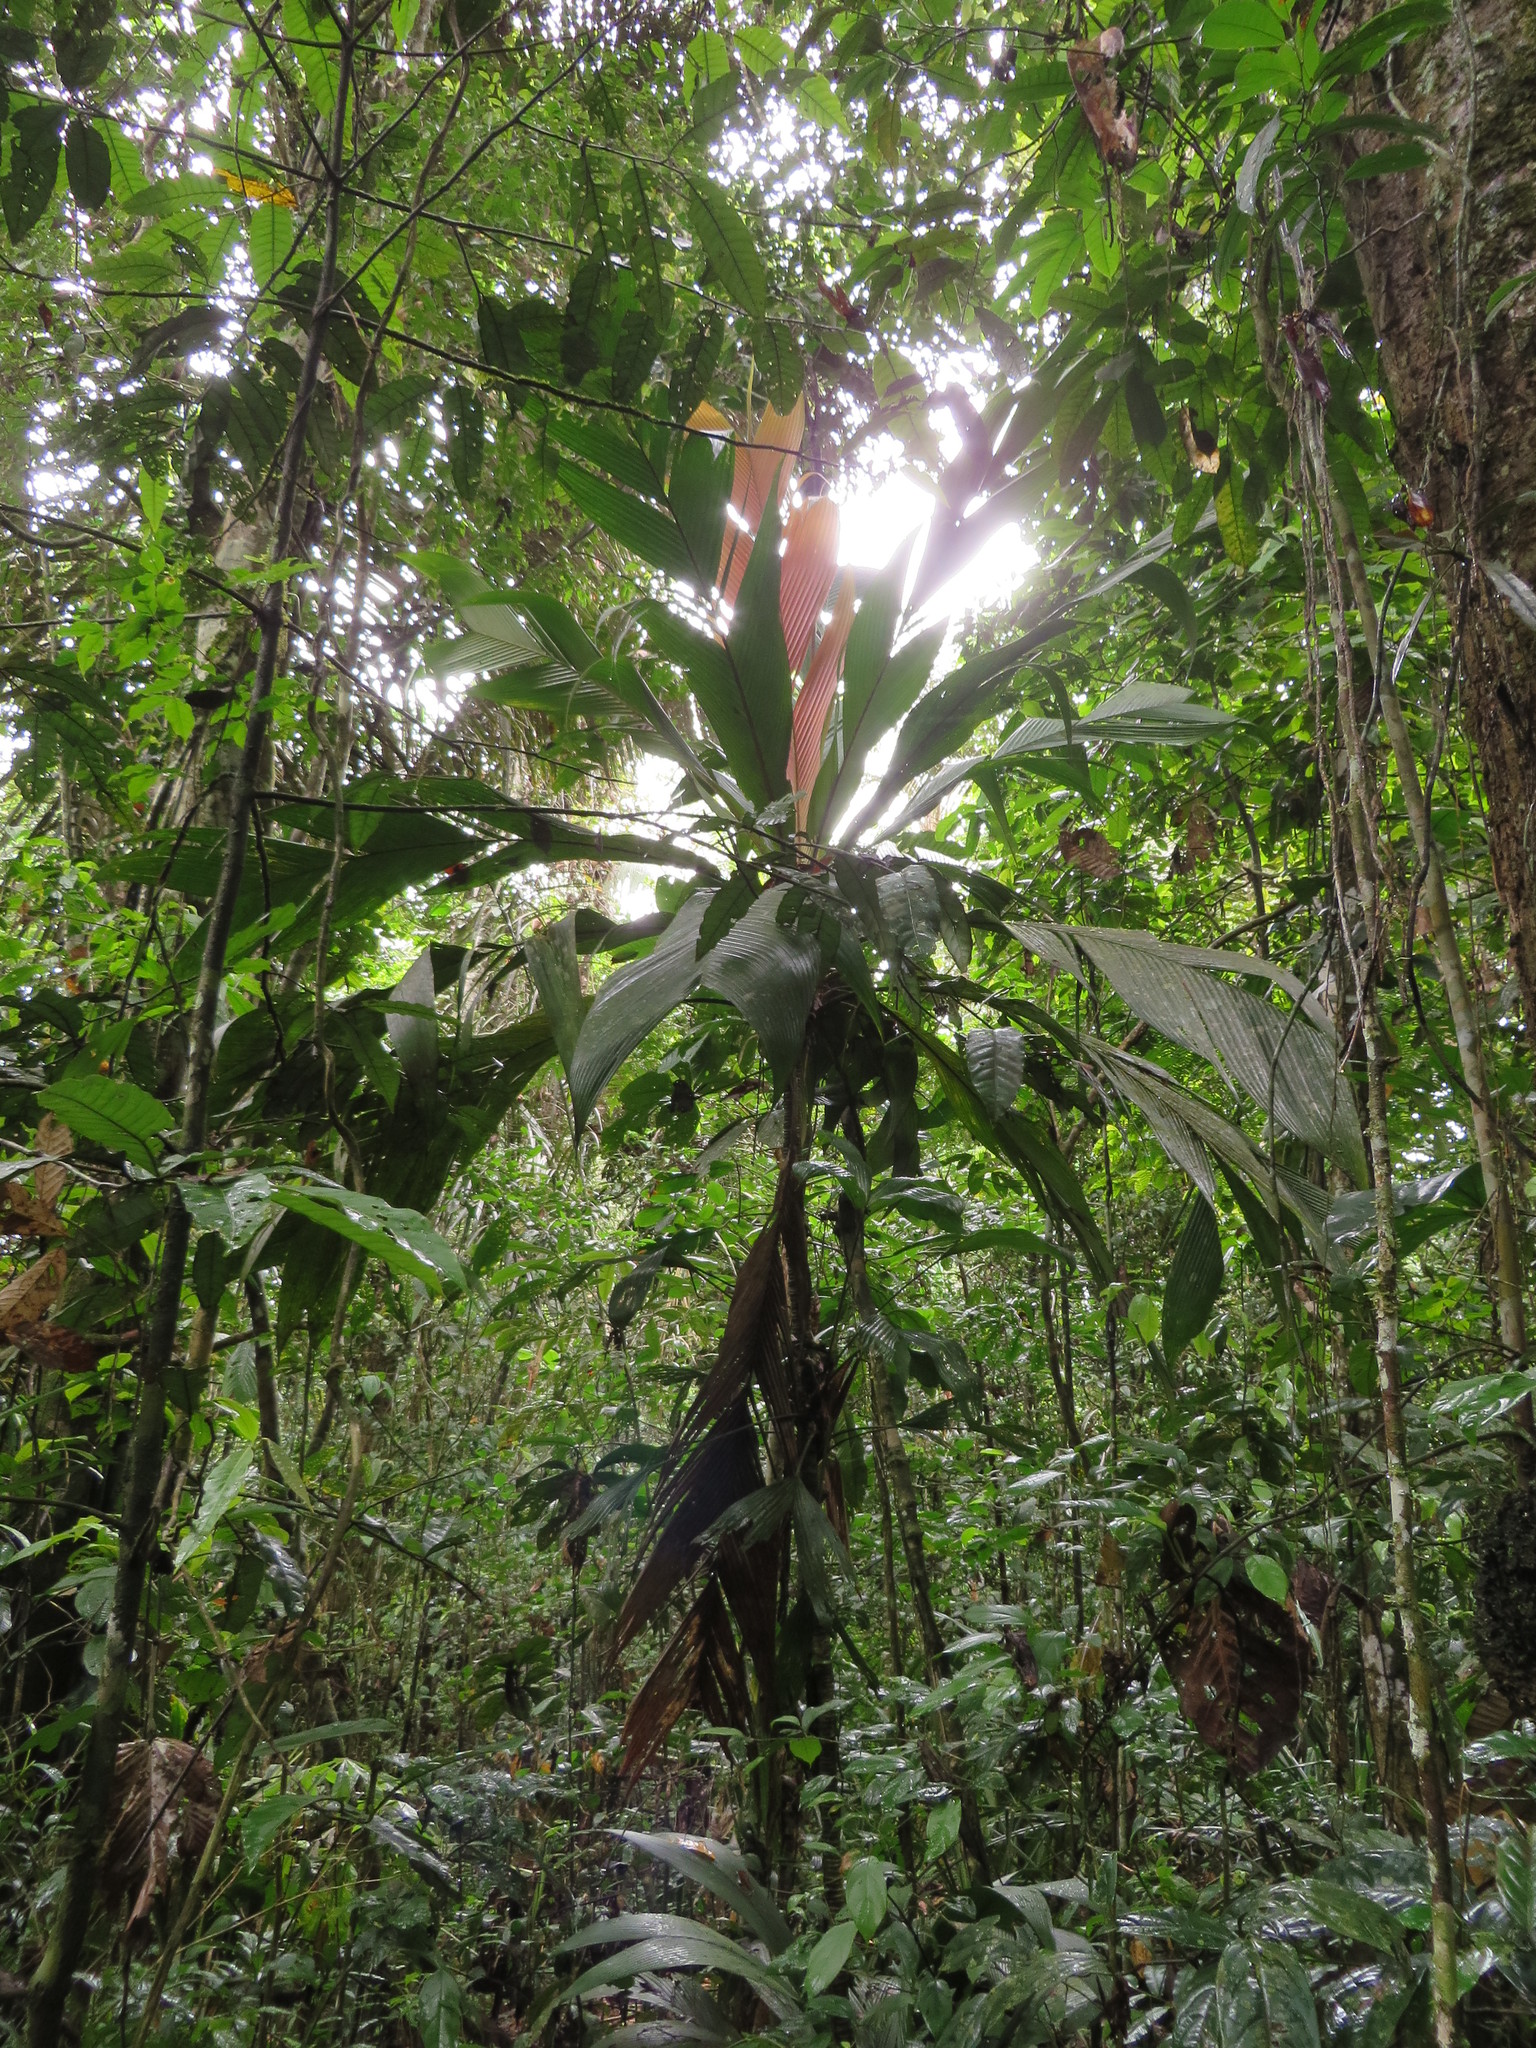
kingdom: Plantae
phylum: Tracheophyta
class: Liliopsida
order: Arecales
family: Arecaceae
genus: Geonoma
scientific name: Geonoma triglochin
